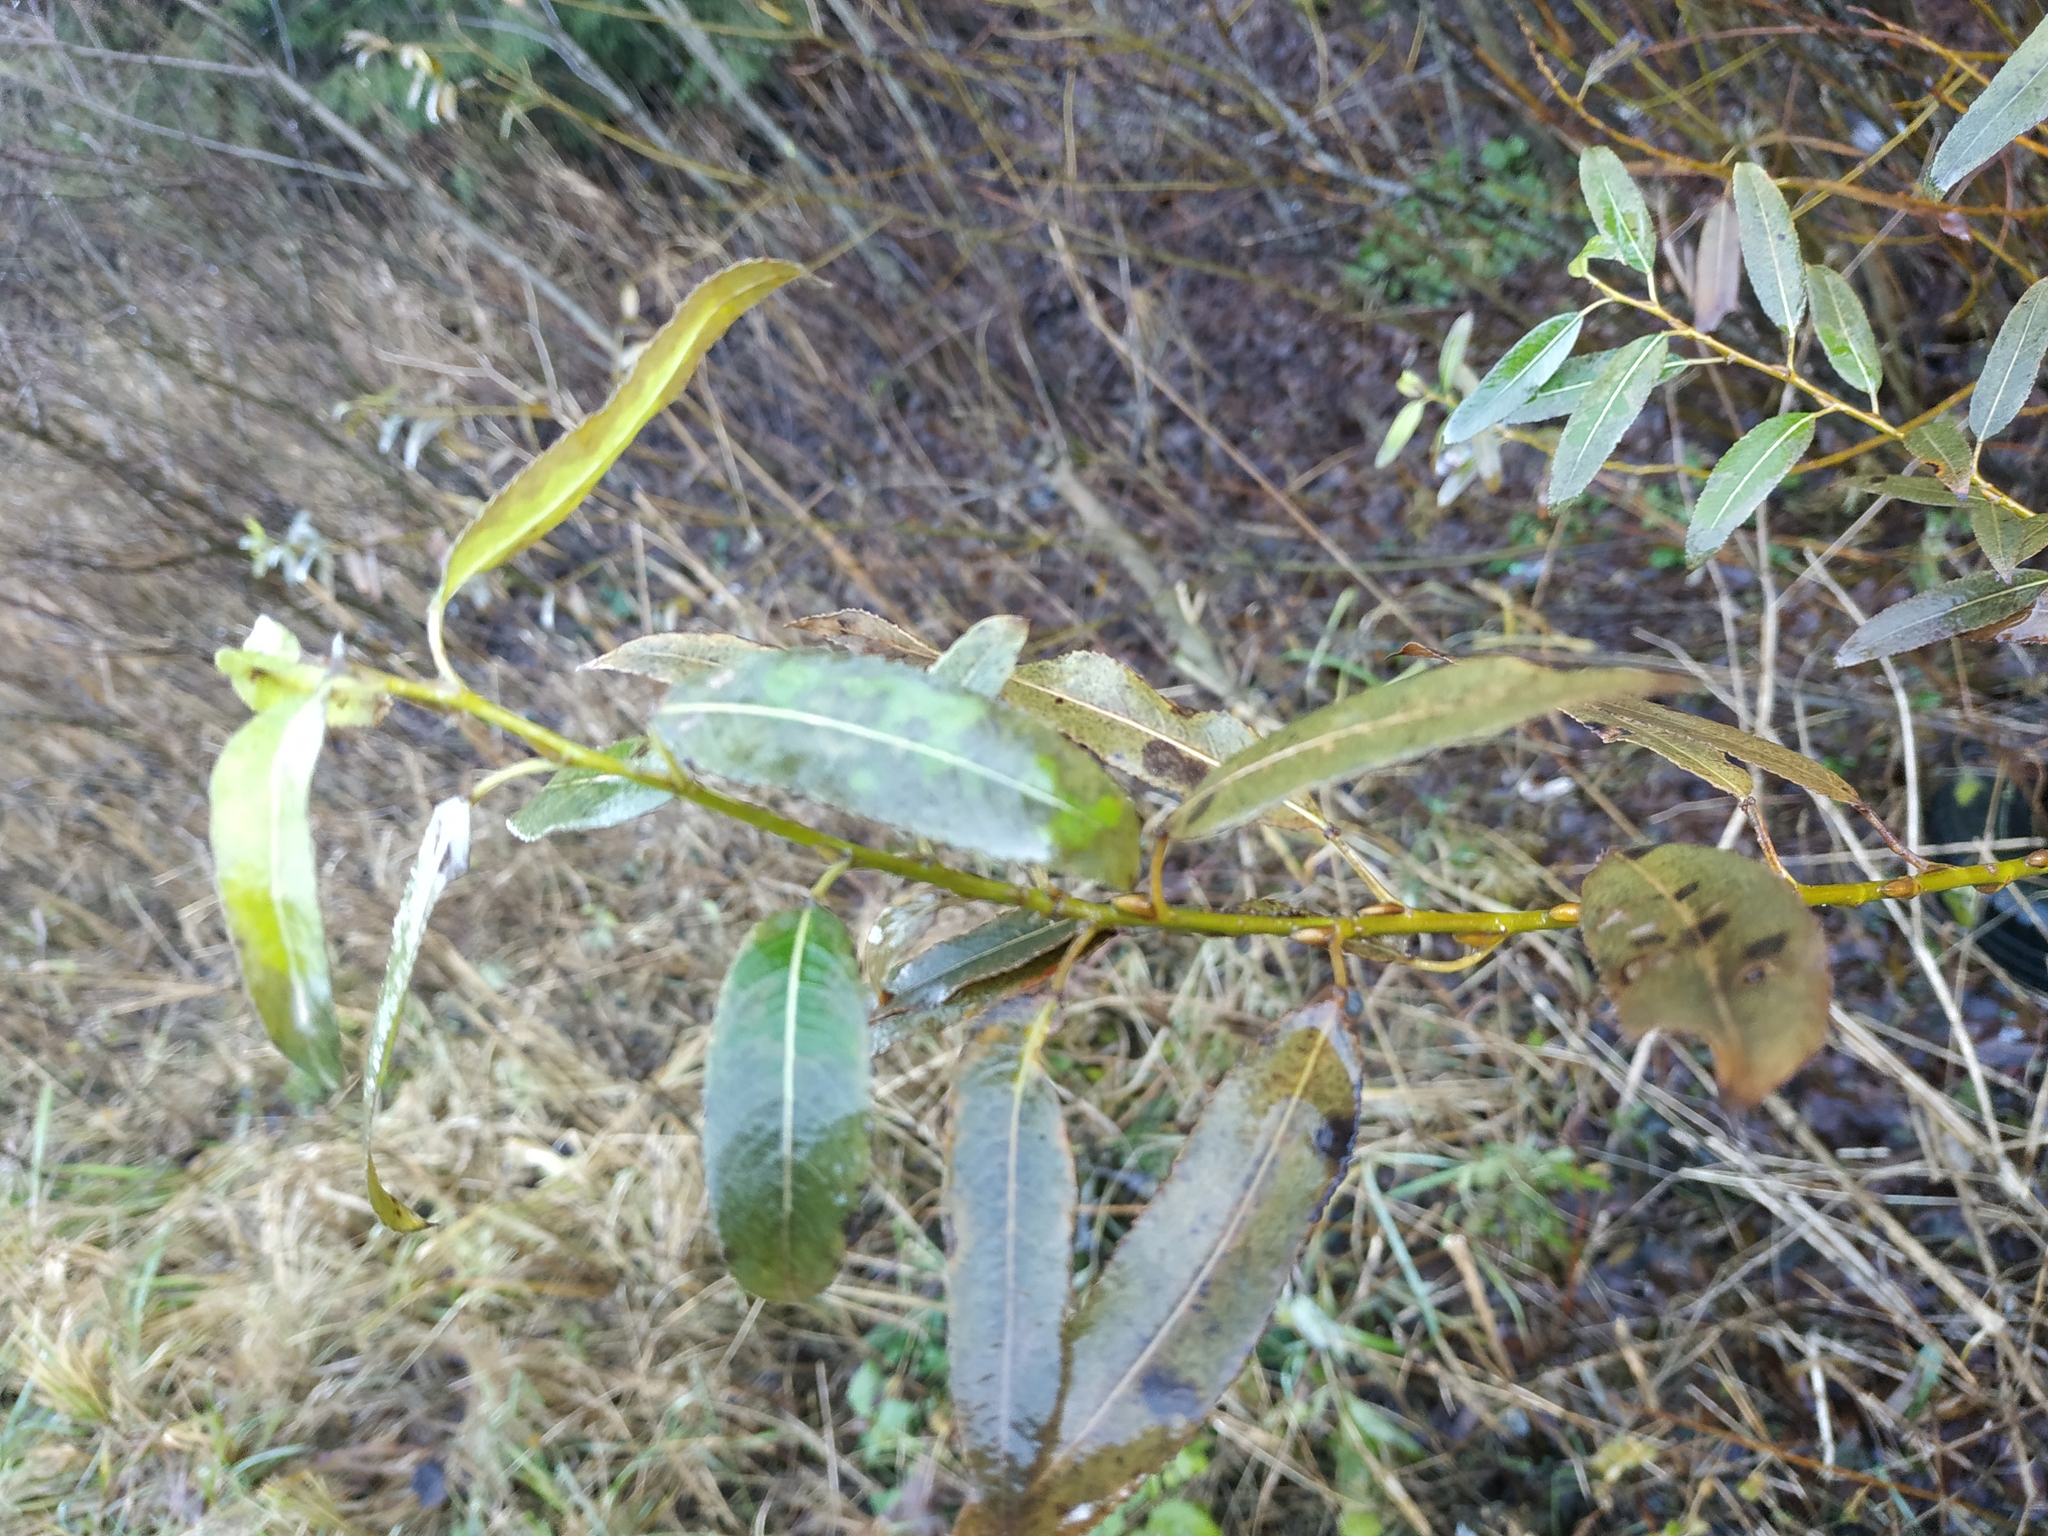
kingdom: Plantae
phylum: Tracheophyta
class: Magnoliopsida
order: Malpighiales
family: Salicaceae
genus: Salix
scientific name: Salix triandra
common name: Almond willow
